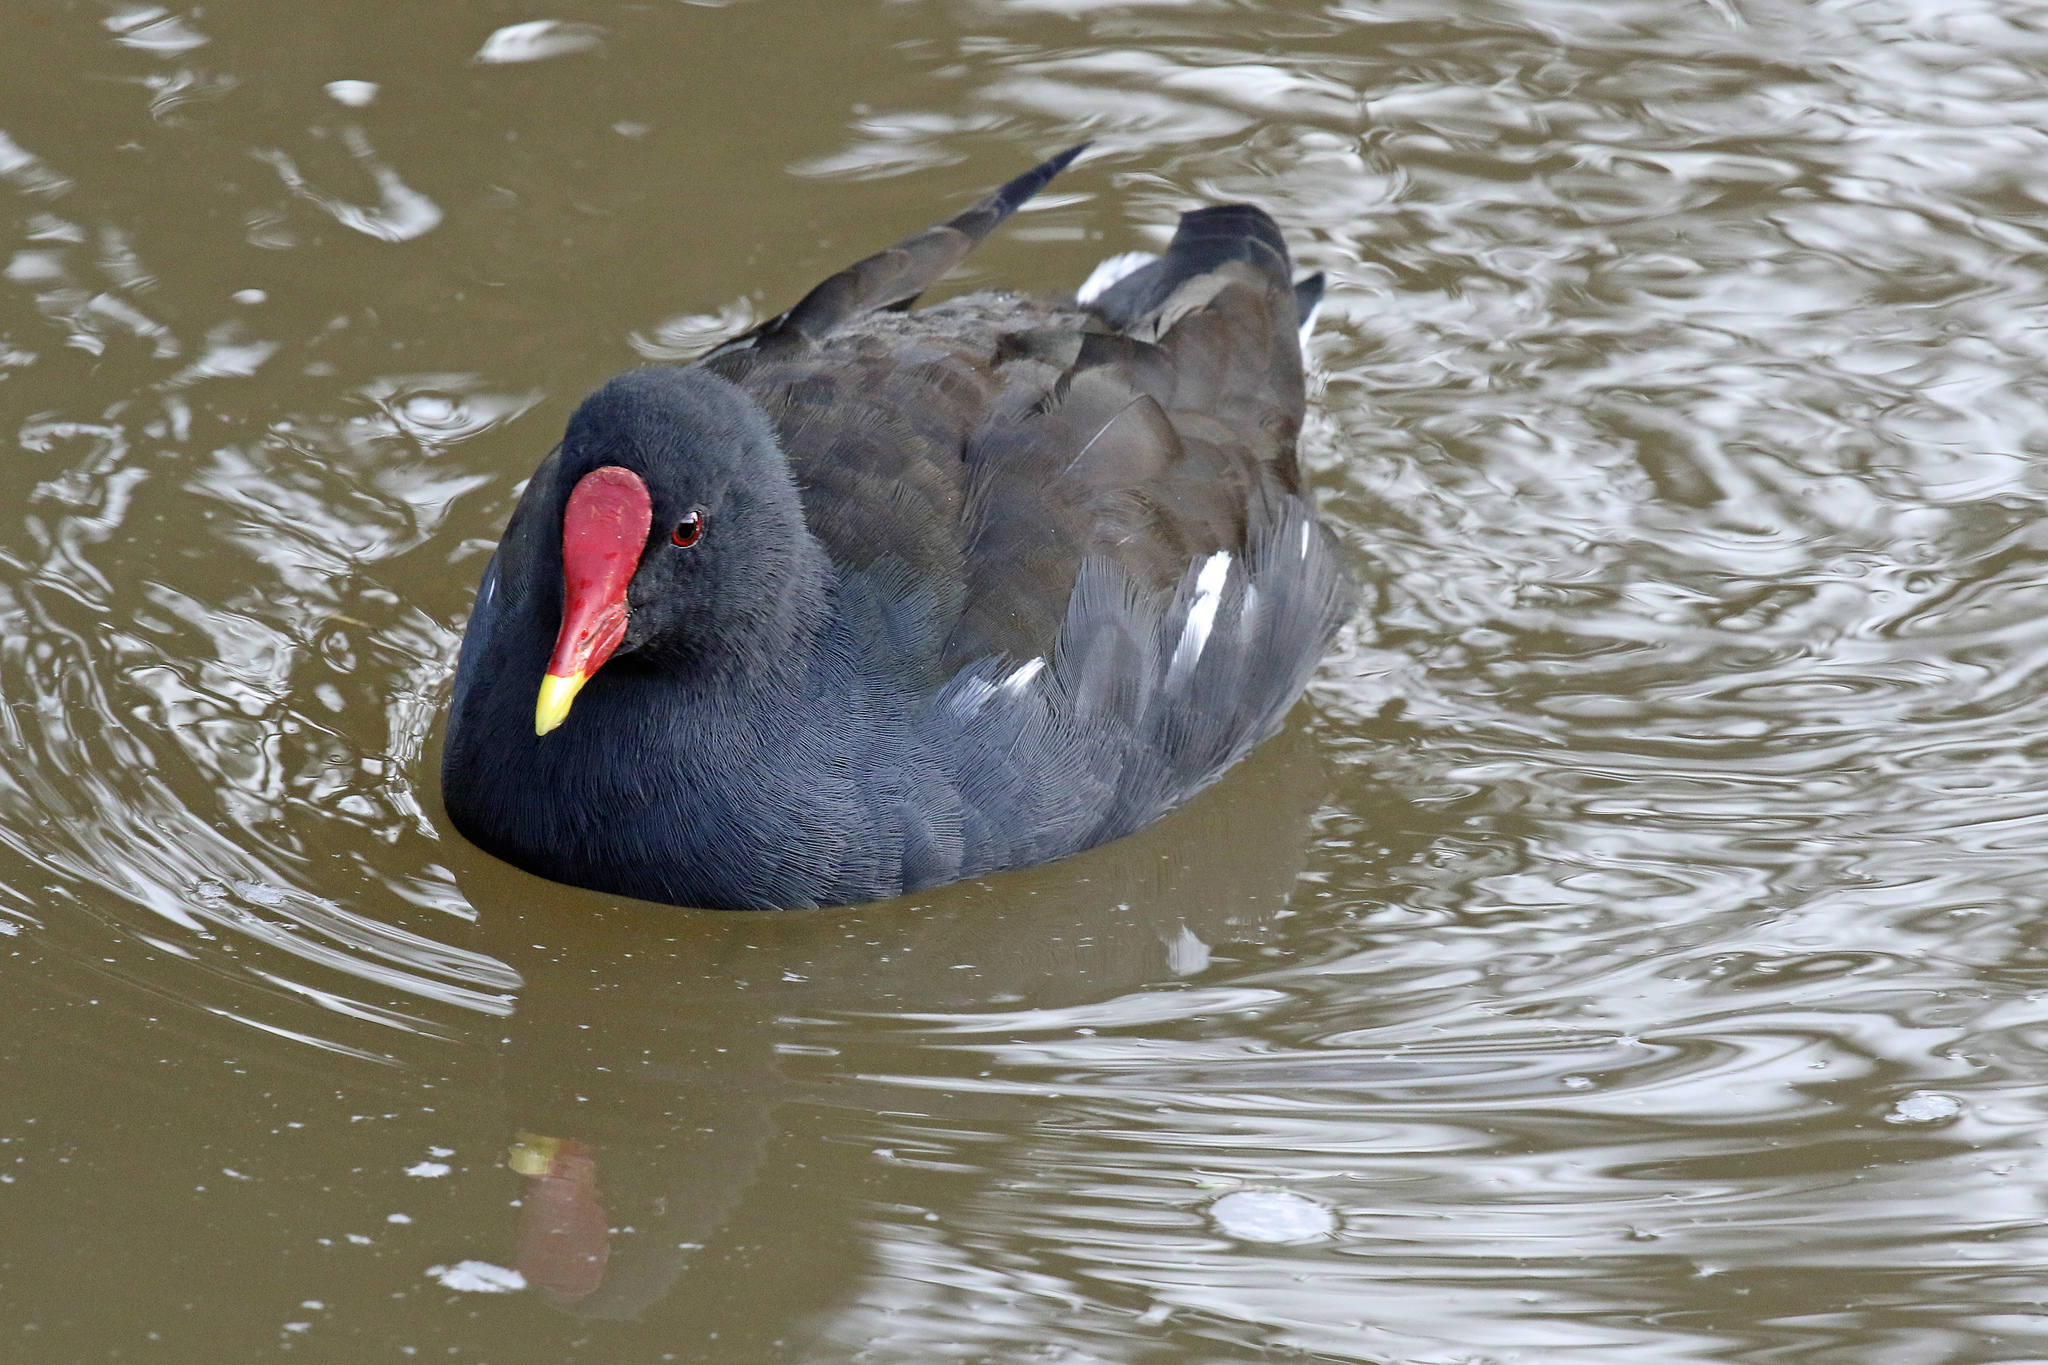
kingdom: Animalia
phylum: Chordata
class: Aves
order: Gruiformes
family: Rallidae
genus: Gallinula
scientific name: Gallinula chloropus
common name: Common moorhen
